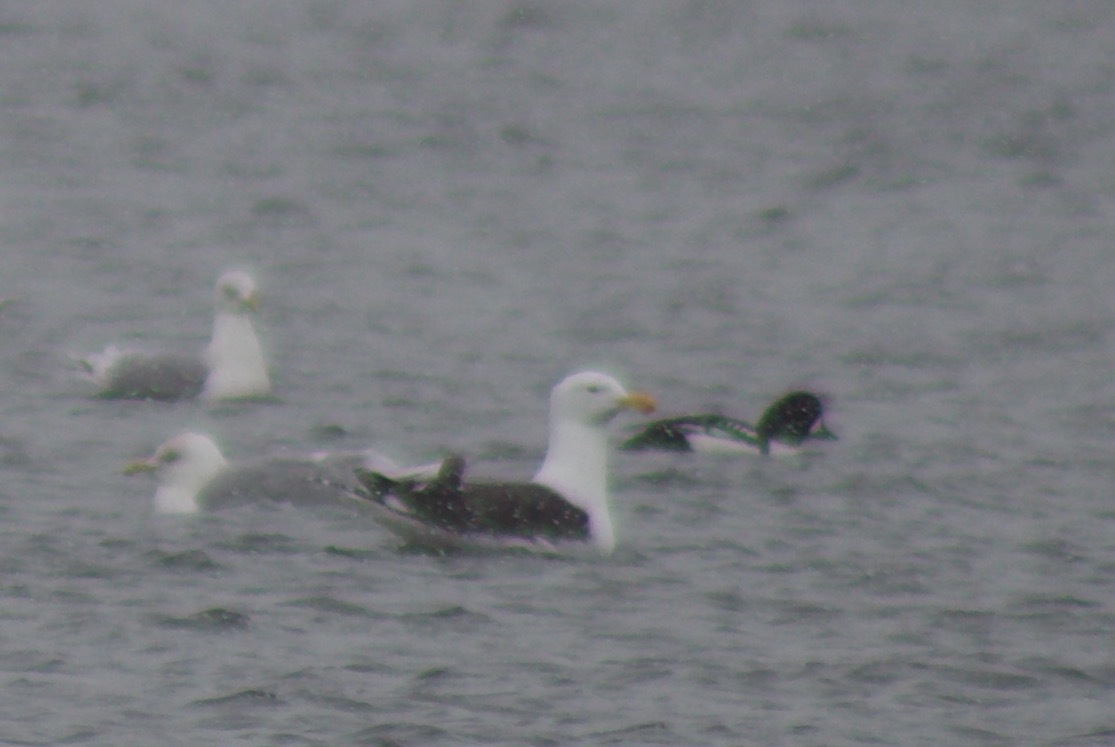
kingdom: Animalia
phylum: Chordata
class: Aves
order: Anseriformes
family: Anatidae
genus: Bucephala
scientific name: Bucephala islandica
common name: Barrow's goldeneye
